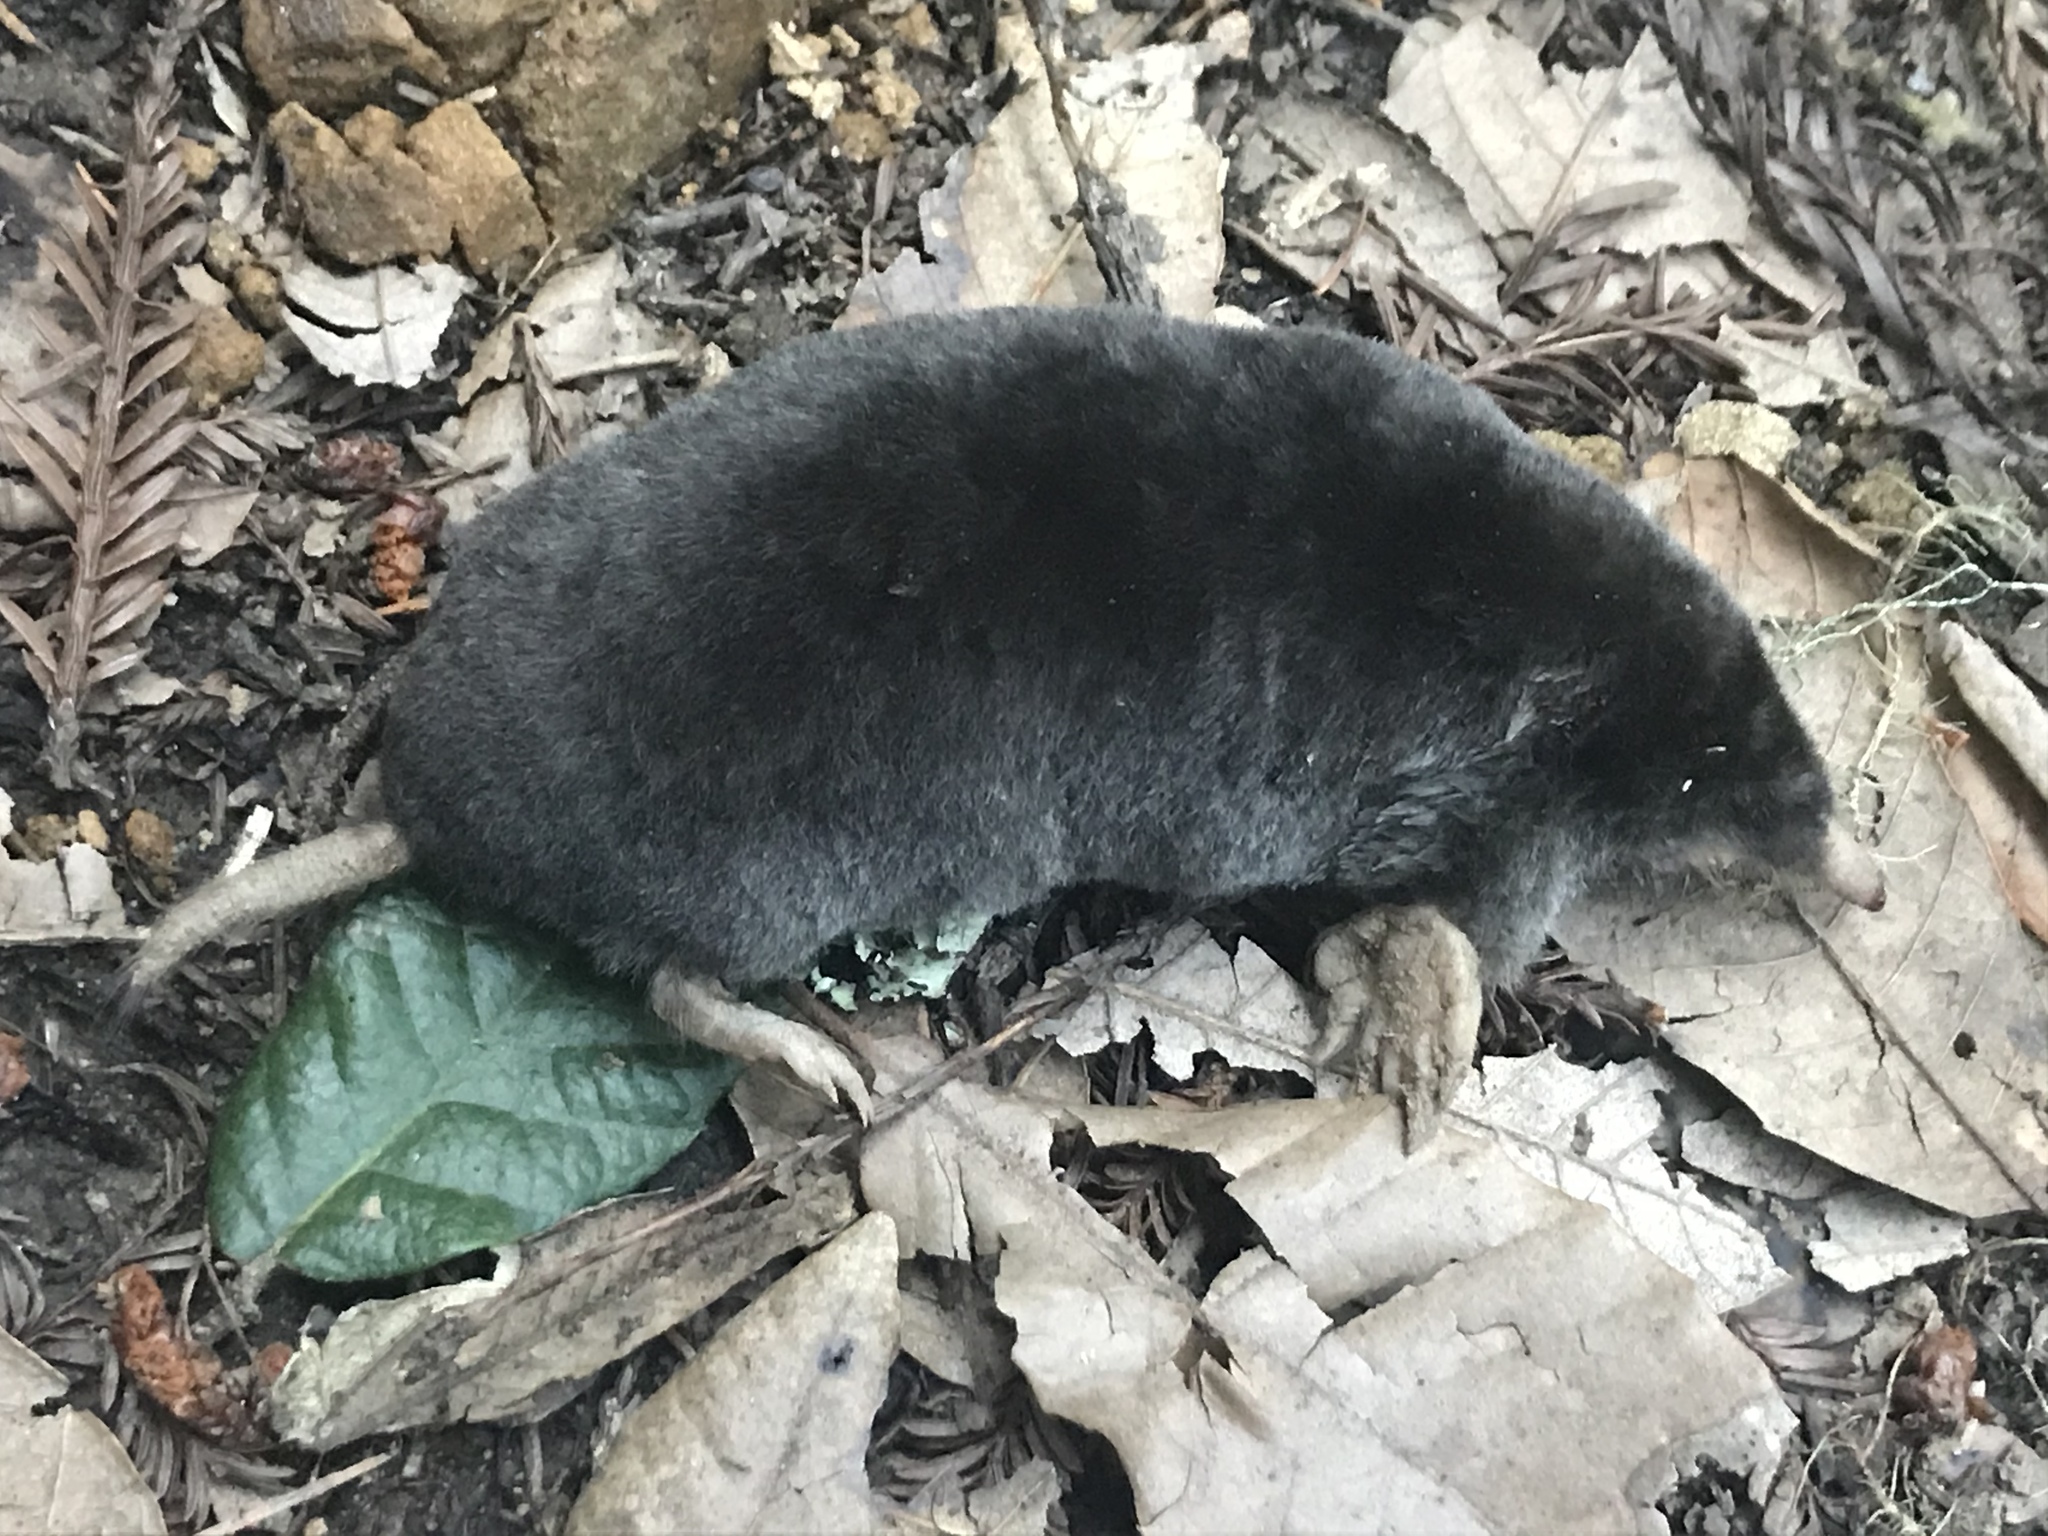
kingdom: Animalia
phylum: Chordata
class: Mammalia
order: Soricomorpha
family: Talpidae
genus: Scapanus
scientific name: Scapanus latimanus
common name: Broad-footed mole
